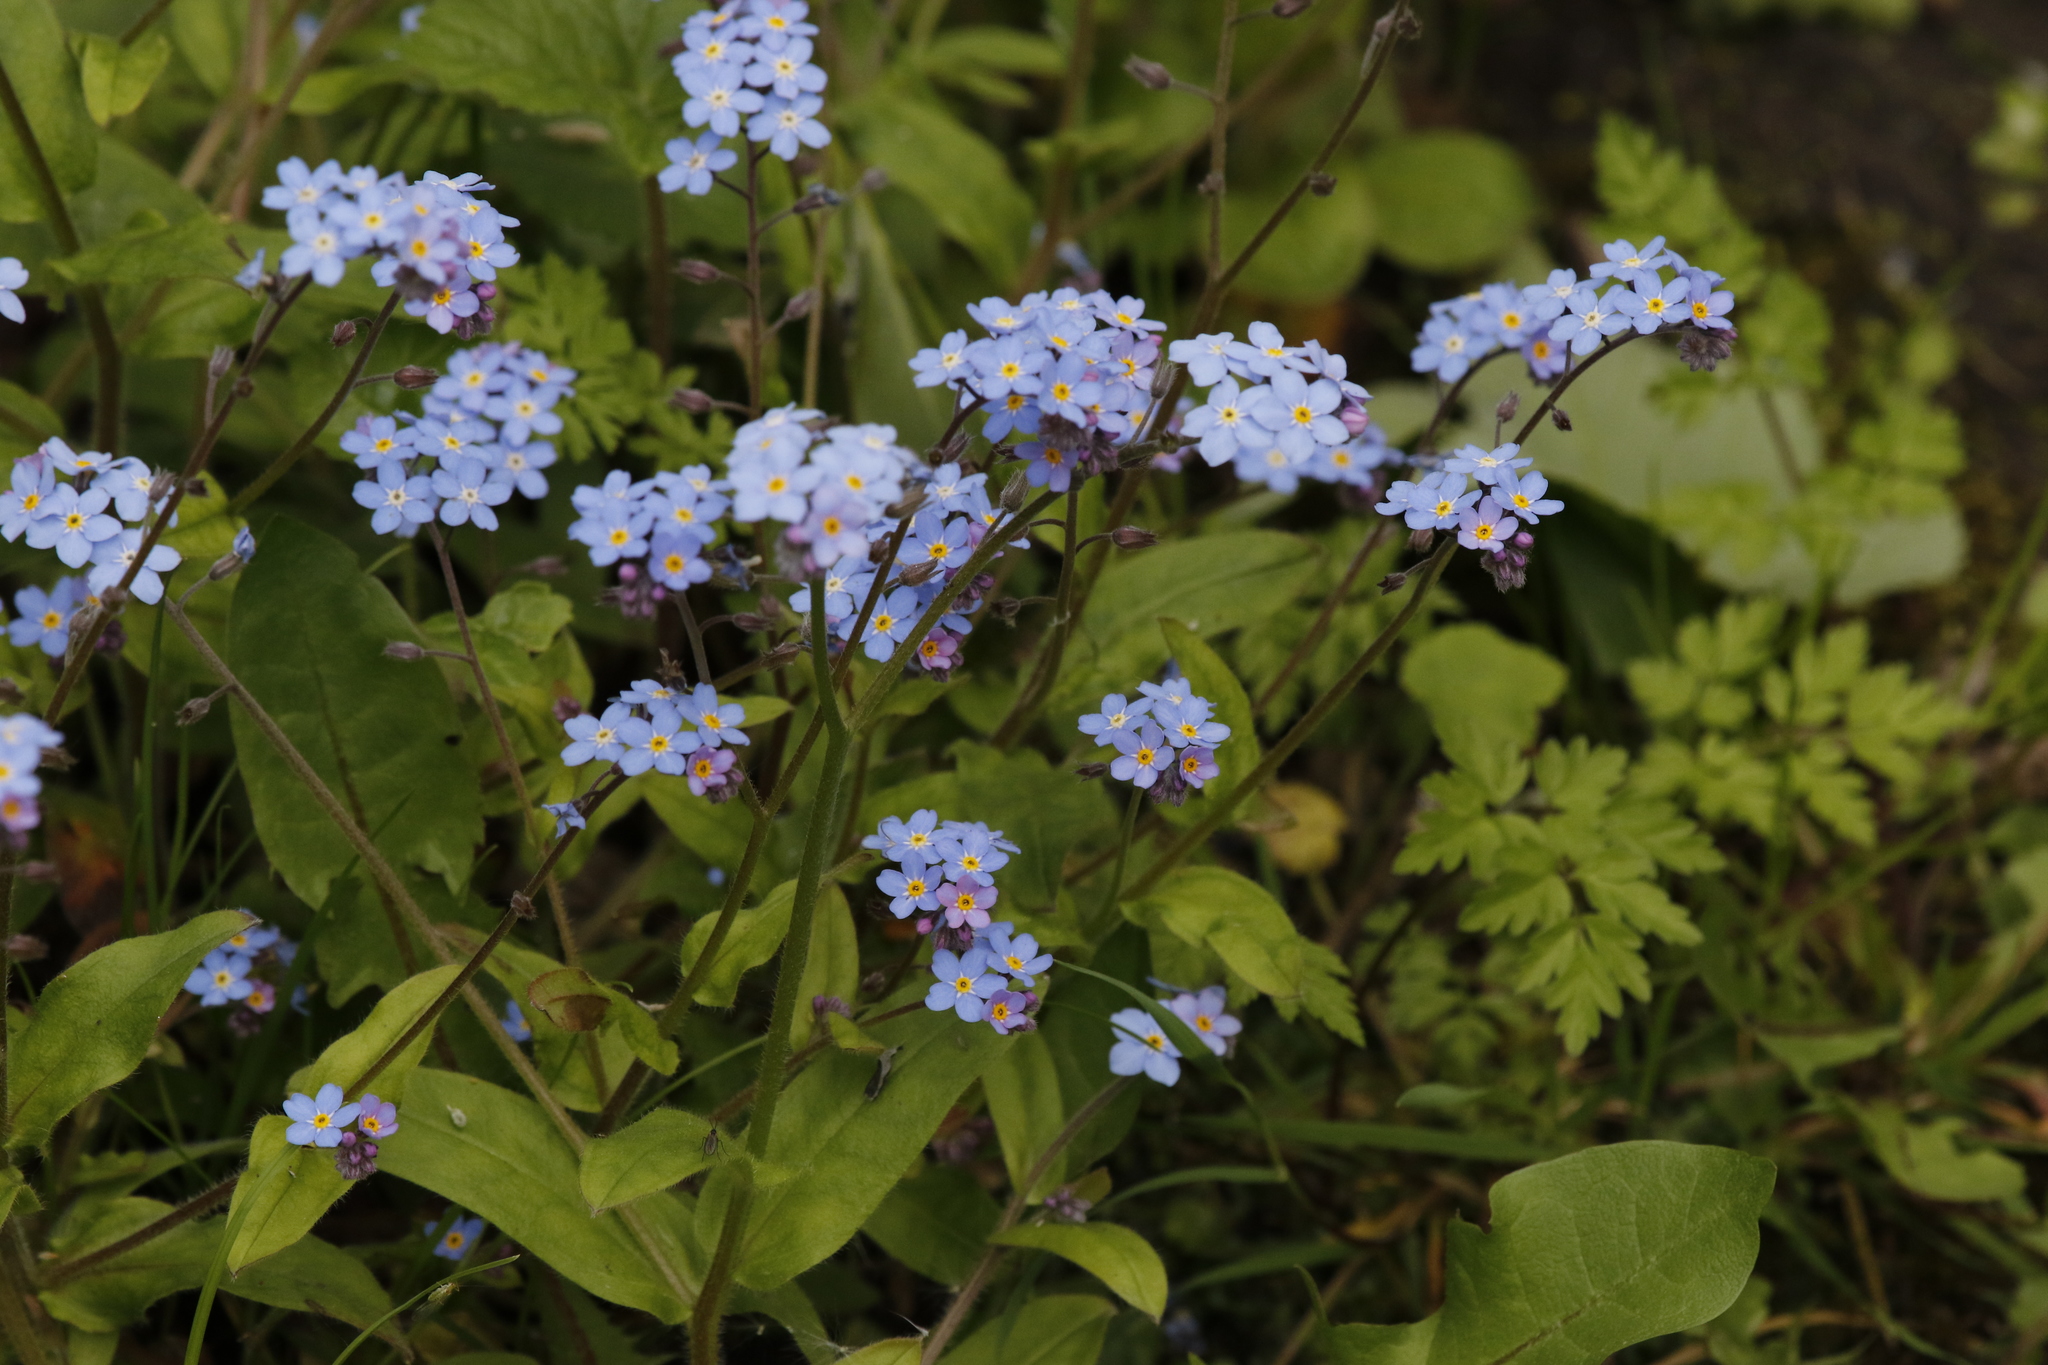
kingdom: Plantae
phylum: Tracheophyta
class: Magnoliopsida
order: Boraginales
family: Boraginaceae
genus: Myosotis
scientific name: Myosotis sylvatica
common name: Wood forget-me-not
